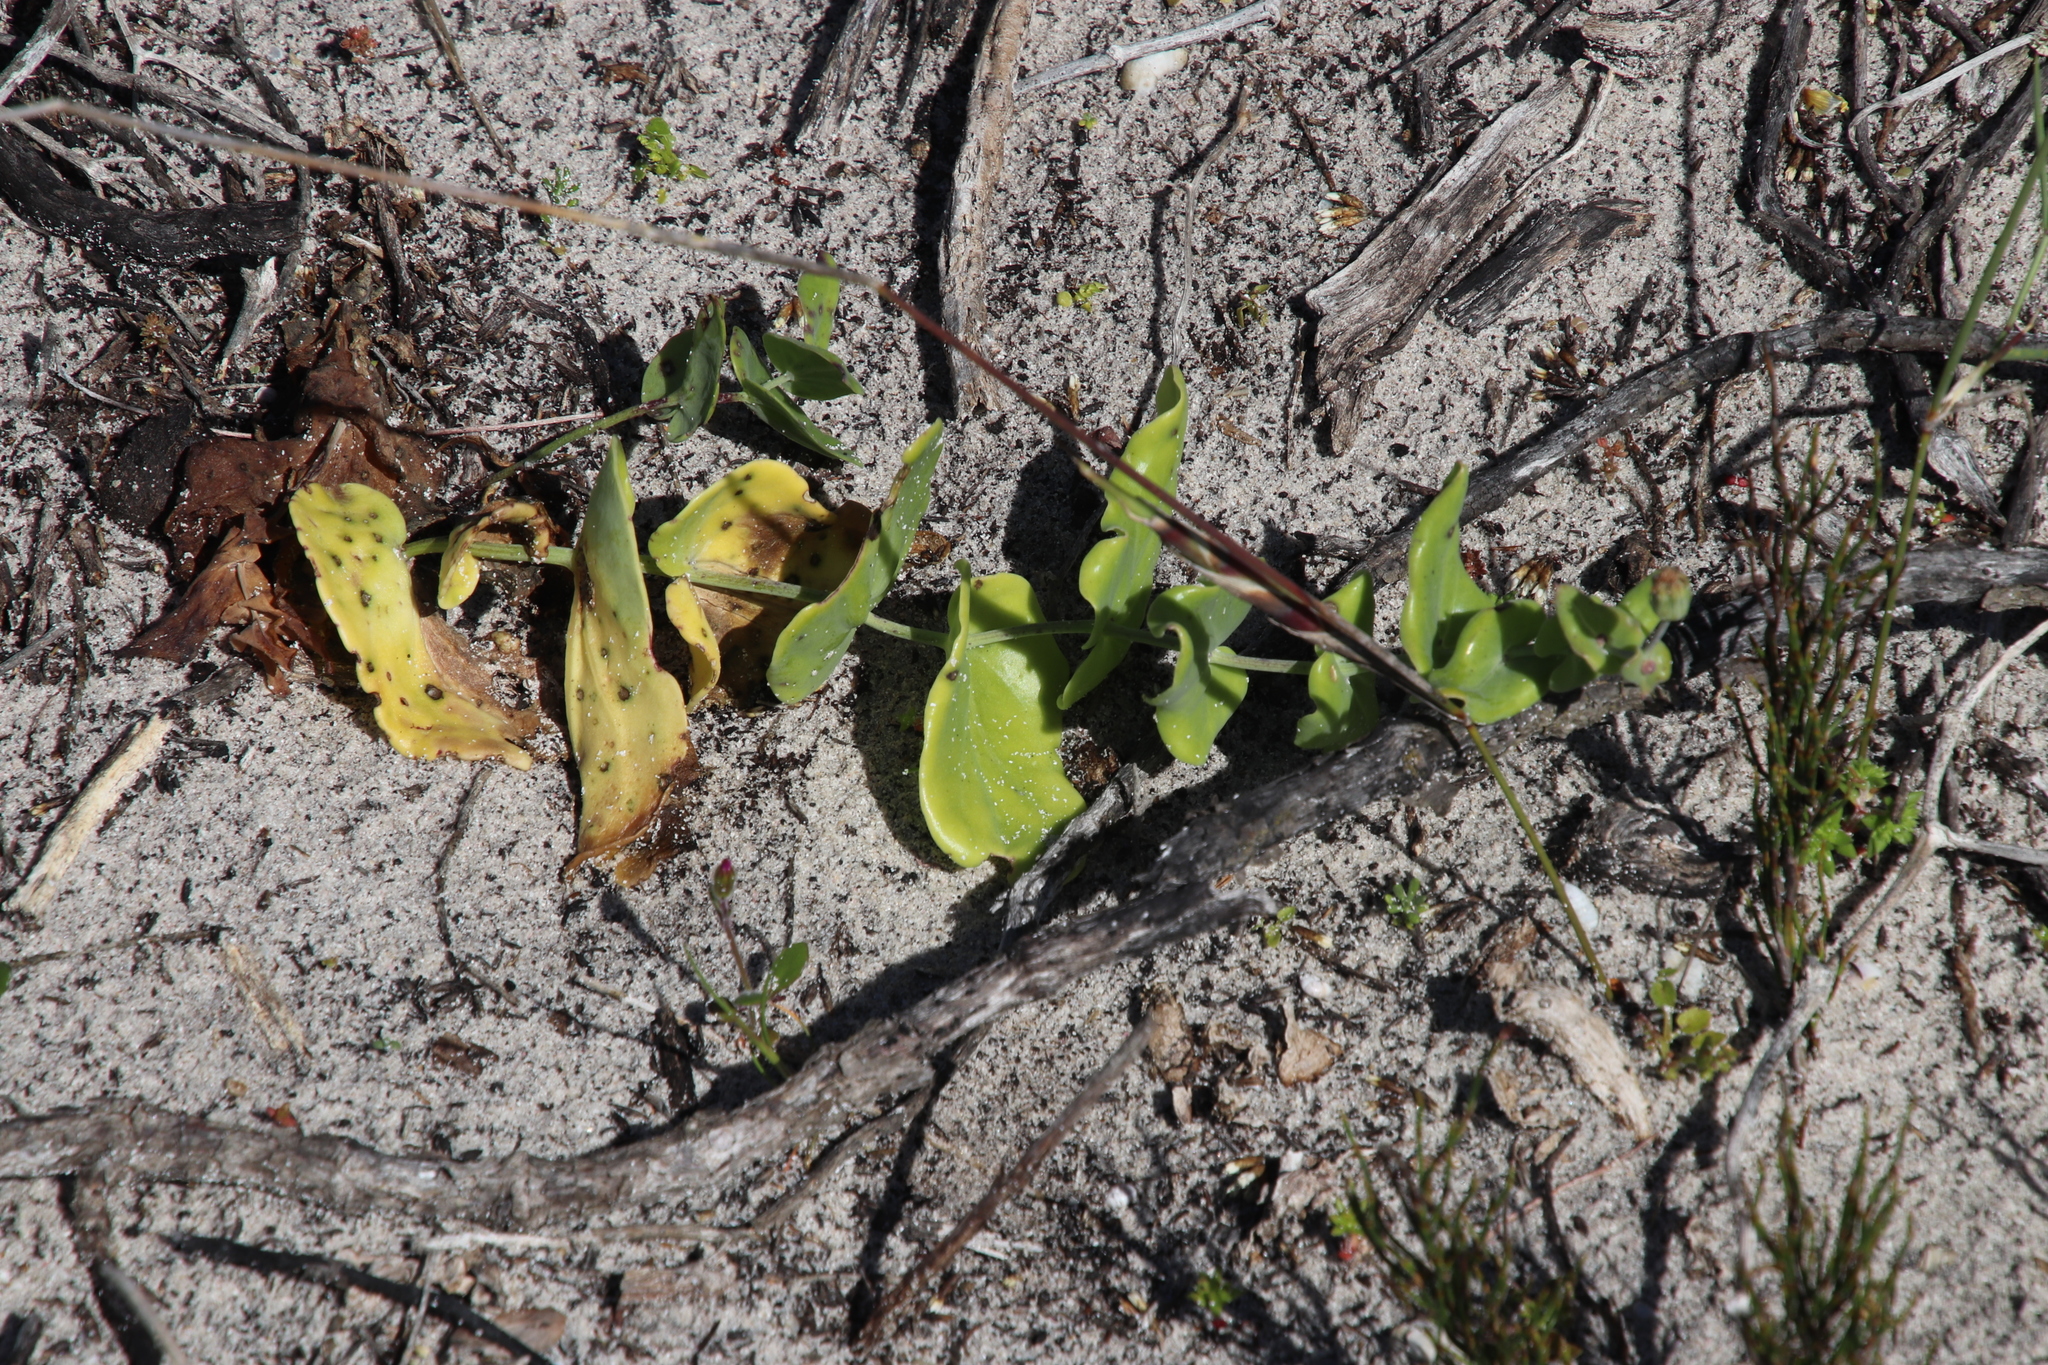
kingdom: Plantae
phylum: Tracheophyta
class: Magnoliopsida
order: Asterales
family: Asteraceae
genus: Othonna
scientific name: Othonna undulosa
